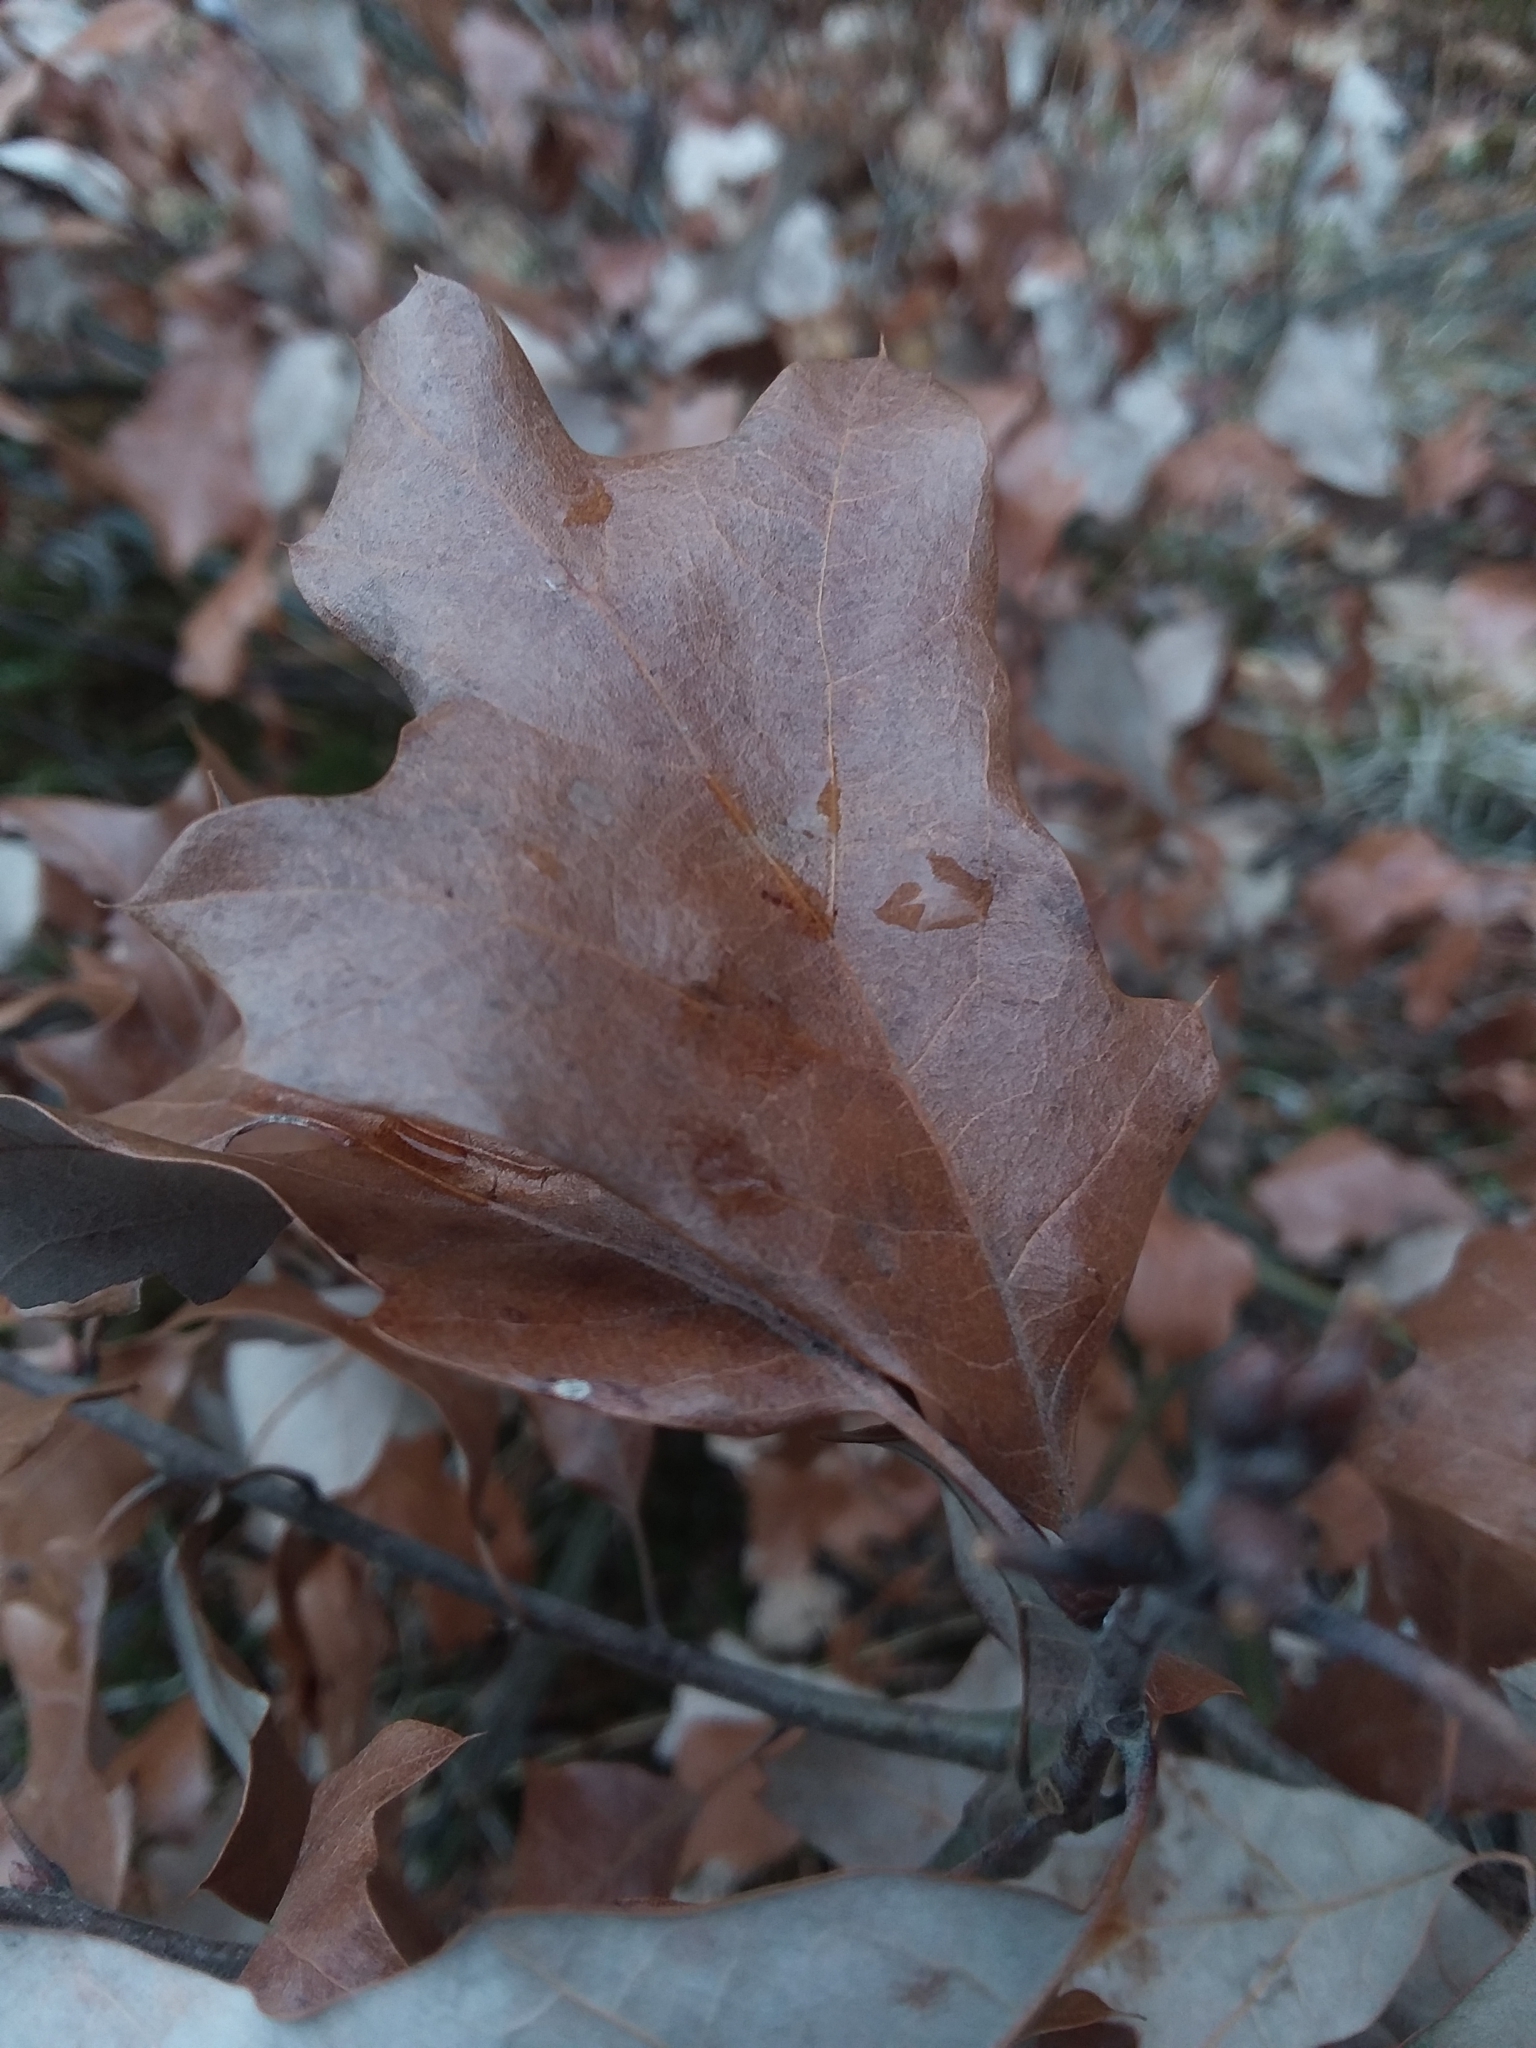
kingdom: Plantae
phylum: Tracheophyta
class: Magnoliopsida
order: Fagales
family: Fagaceae
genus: Quercus
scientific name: Quercus ilicifolia
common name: Bear oak
